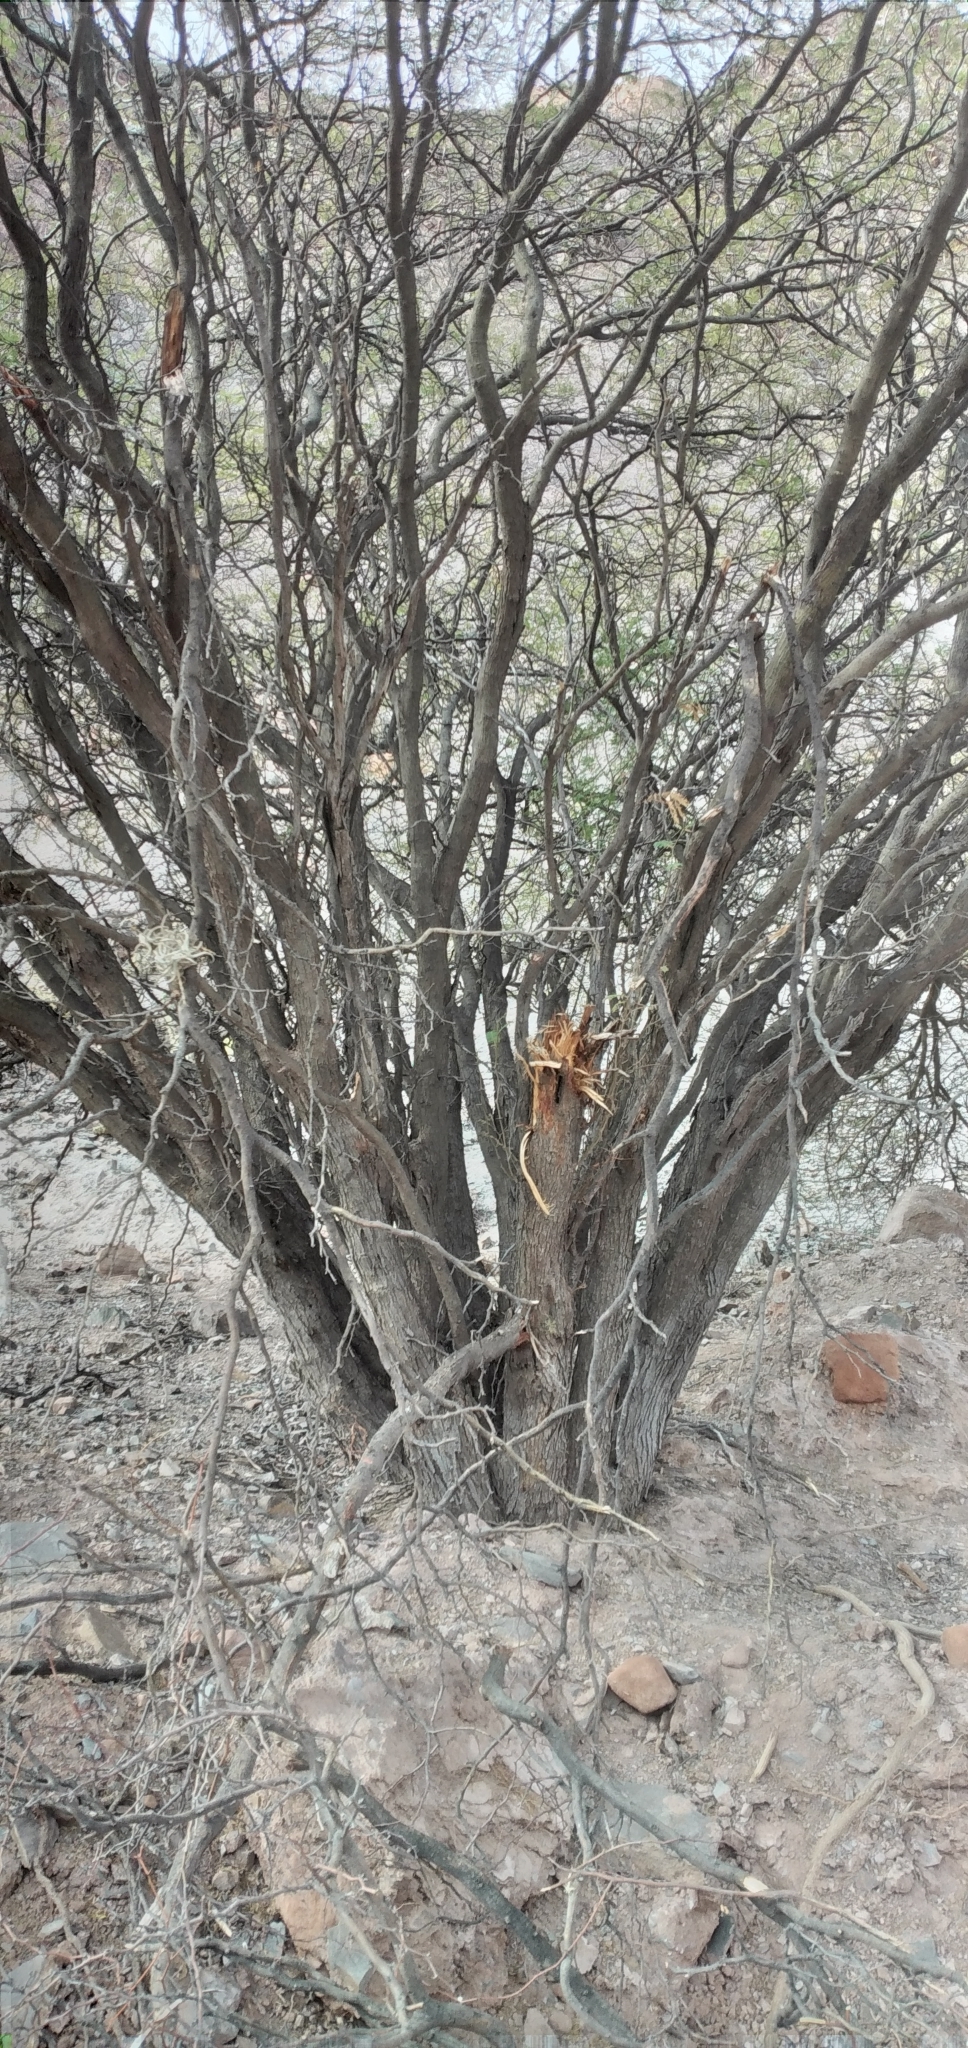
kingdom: Plantae
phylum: Tracheophyta
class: Magnoliopsida
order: Fabales
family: Fabaceae
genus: Vachellia
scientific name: Vachellia aroma
